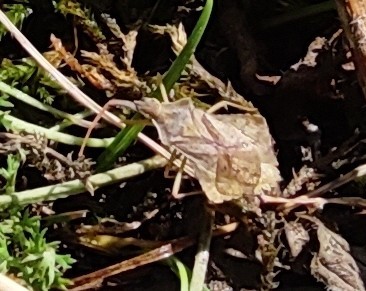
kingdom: Animalia
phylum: Arthropoda
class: Insecta
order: Hemiptera
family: Coreidae
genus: Syromastus
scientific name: Syromastus rhombeus
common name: Rhombic leatherbug
